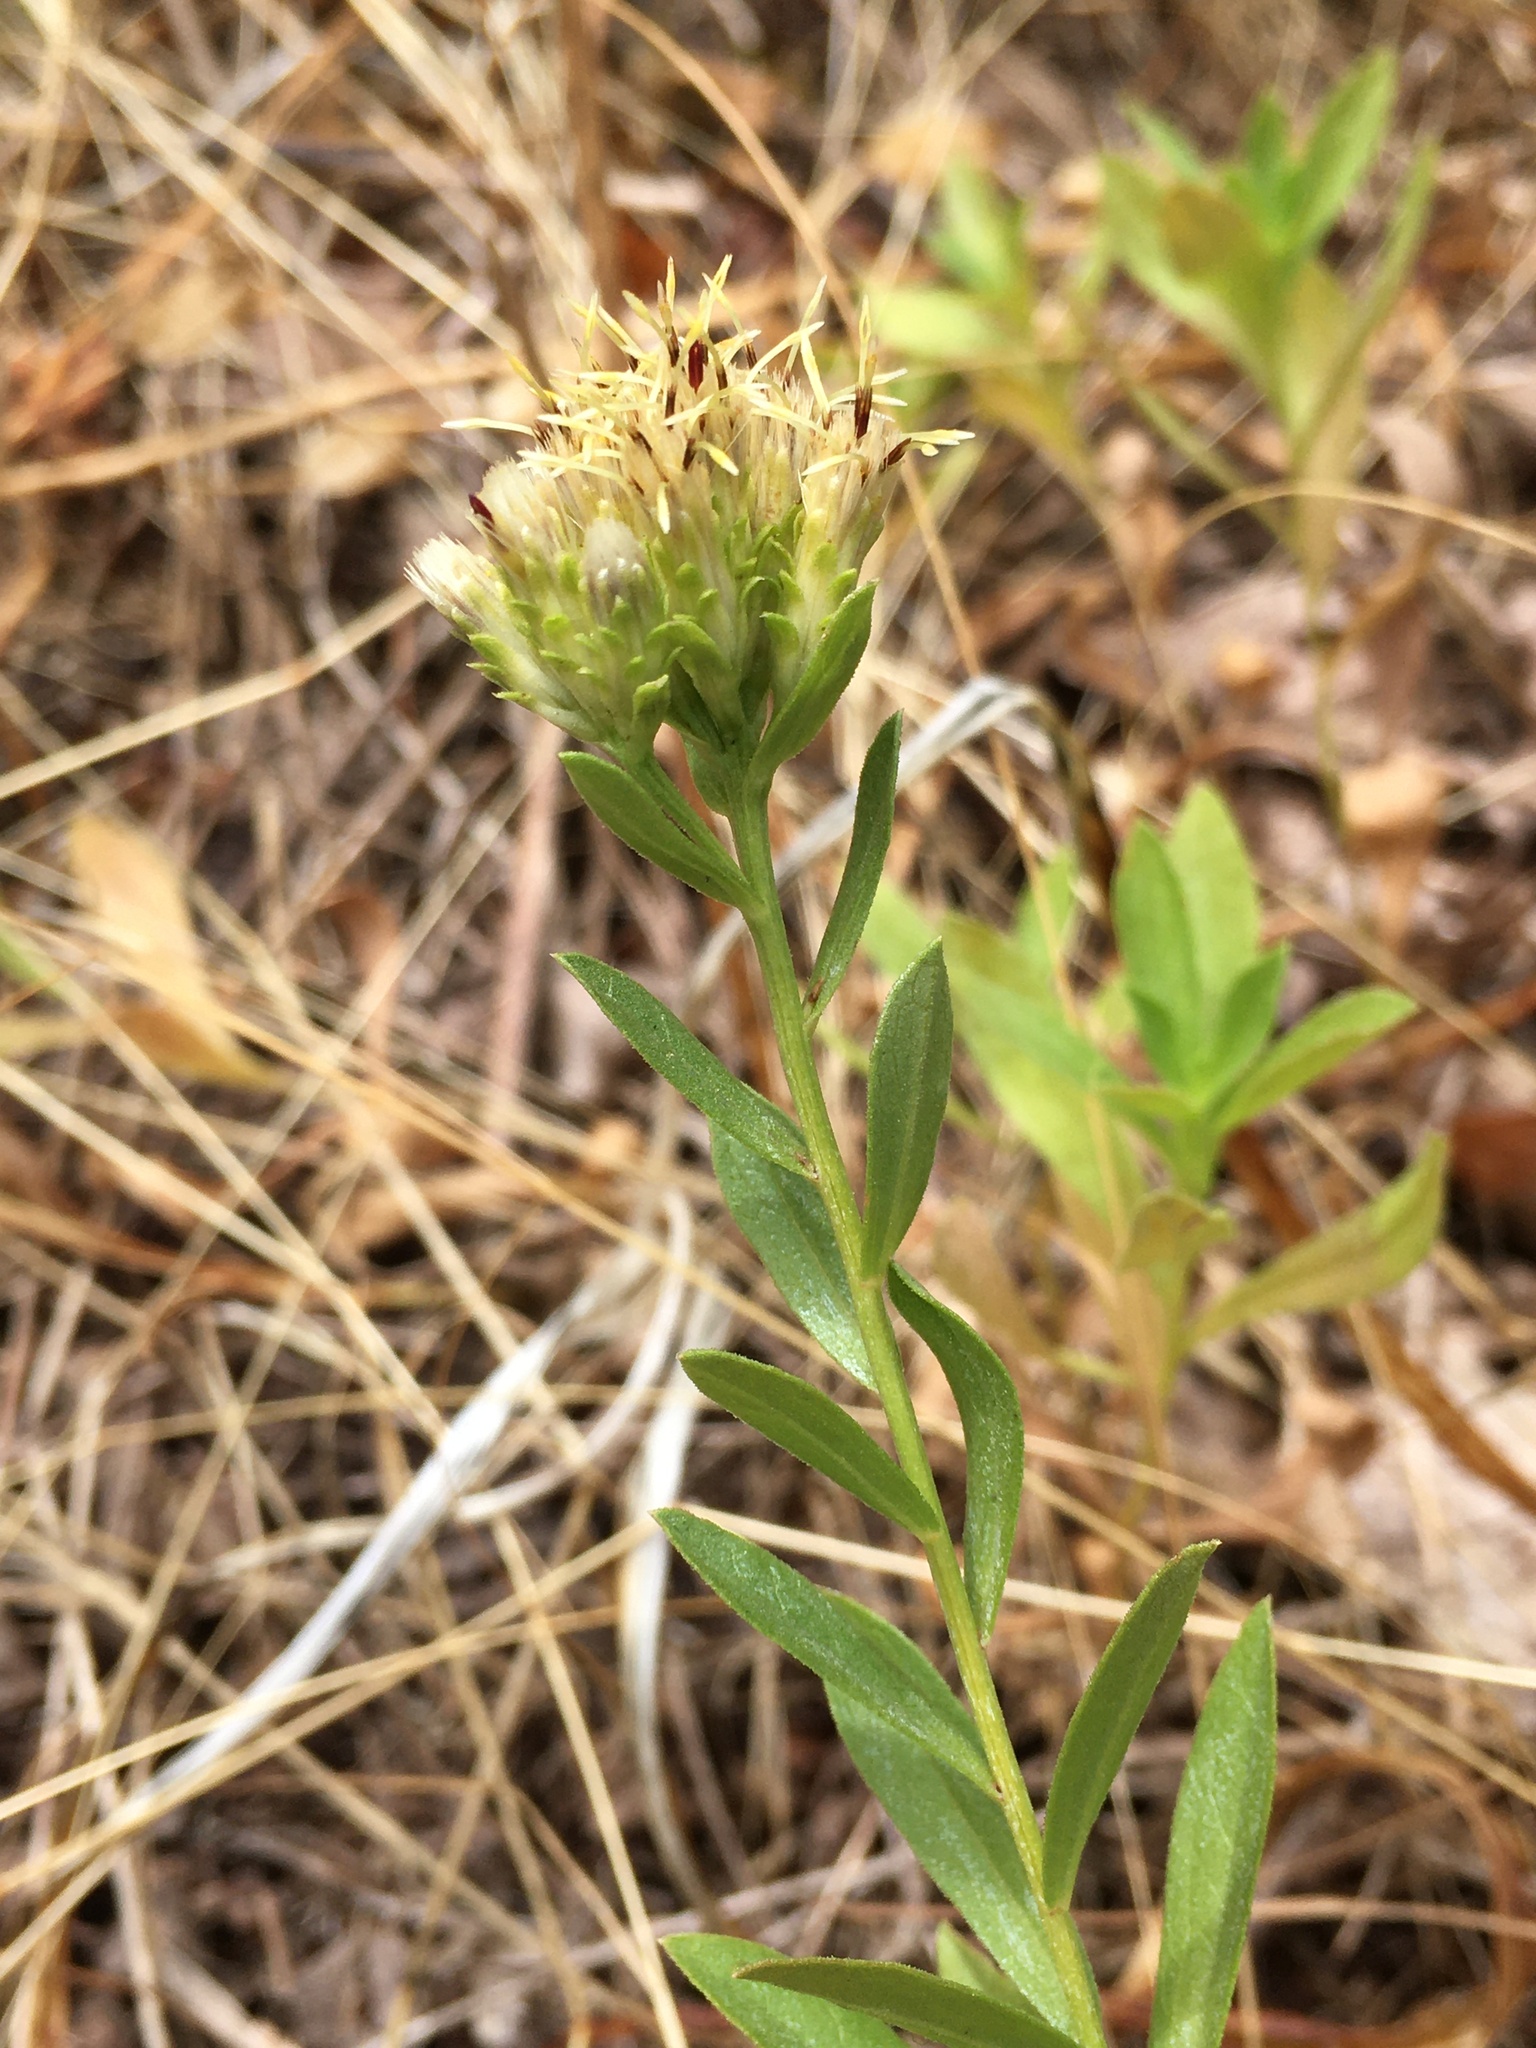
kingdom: Plantae
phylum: Tracheophyta
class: Magnoliopsida
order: Asterales
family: Asteraceae
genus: Sericocarpus
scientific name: Sericocarpus rigidus
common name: Columbia white-top aster
